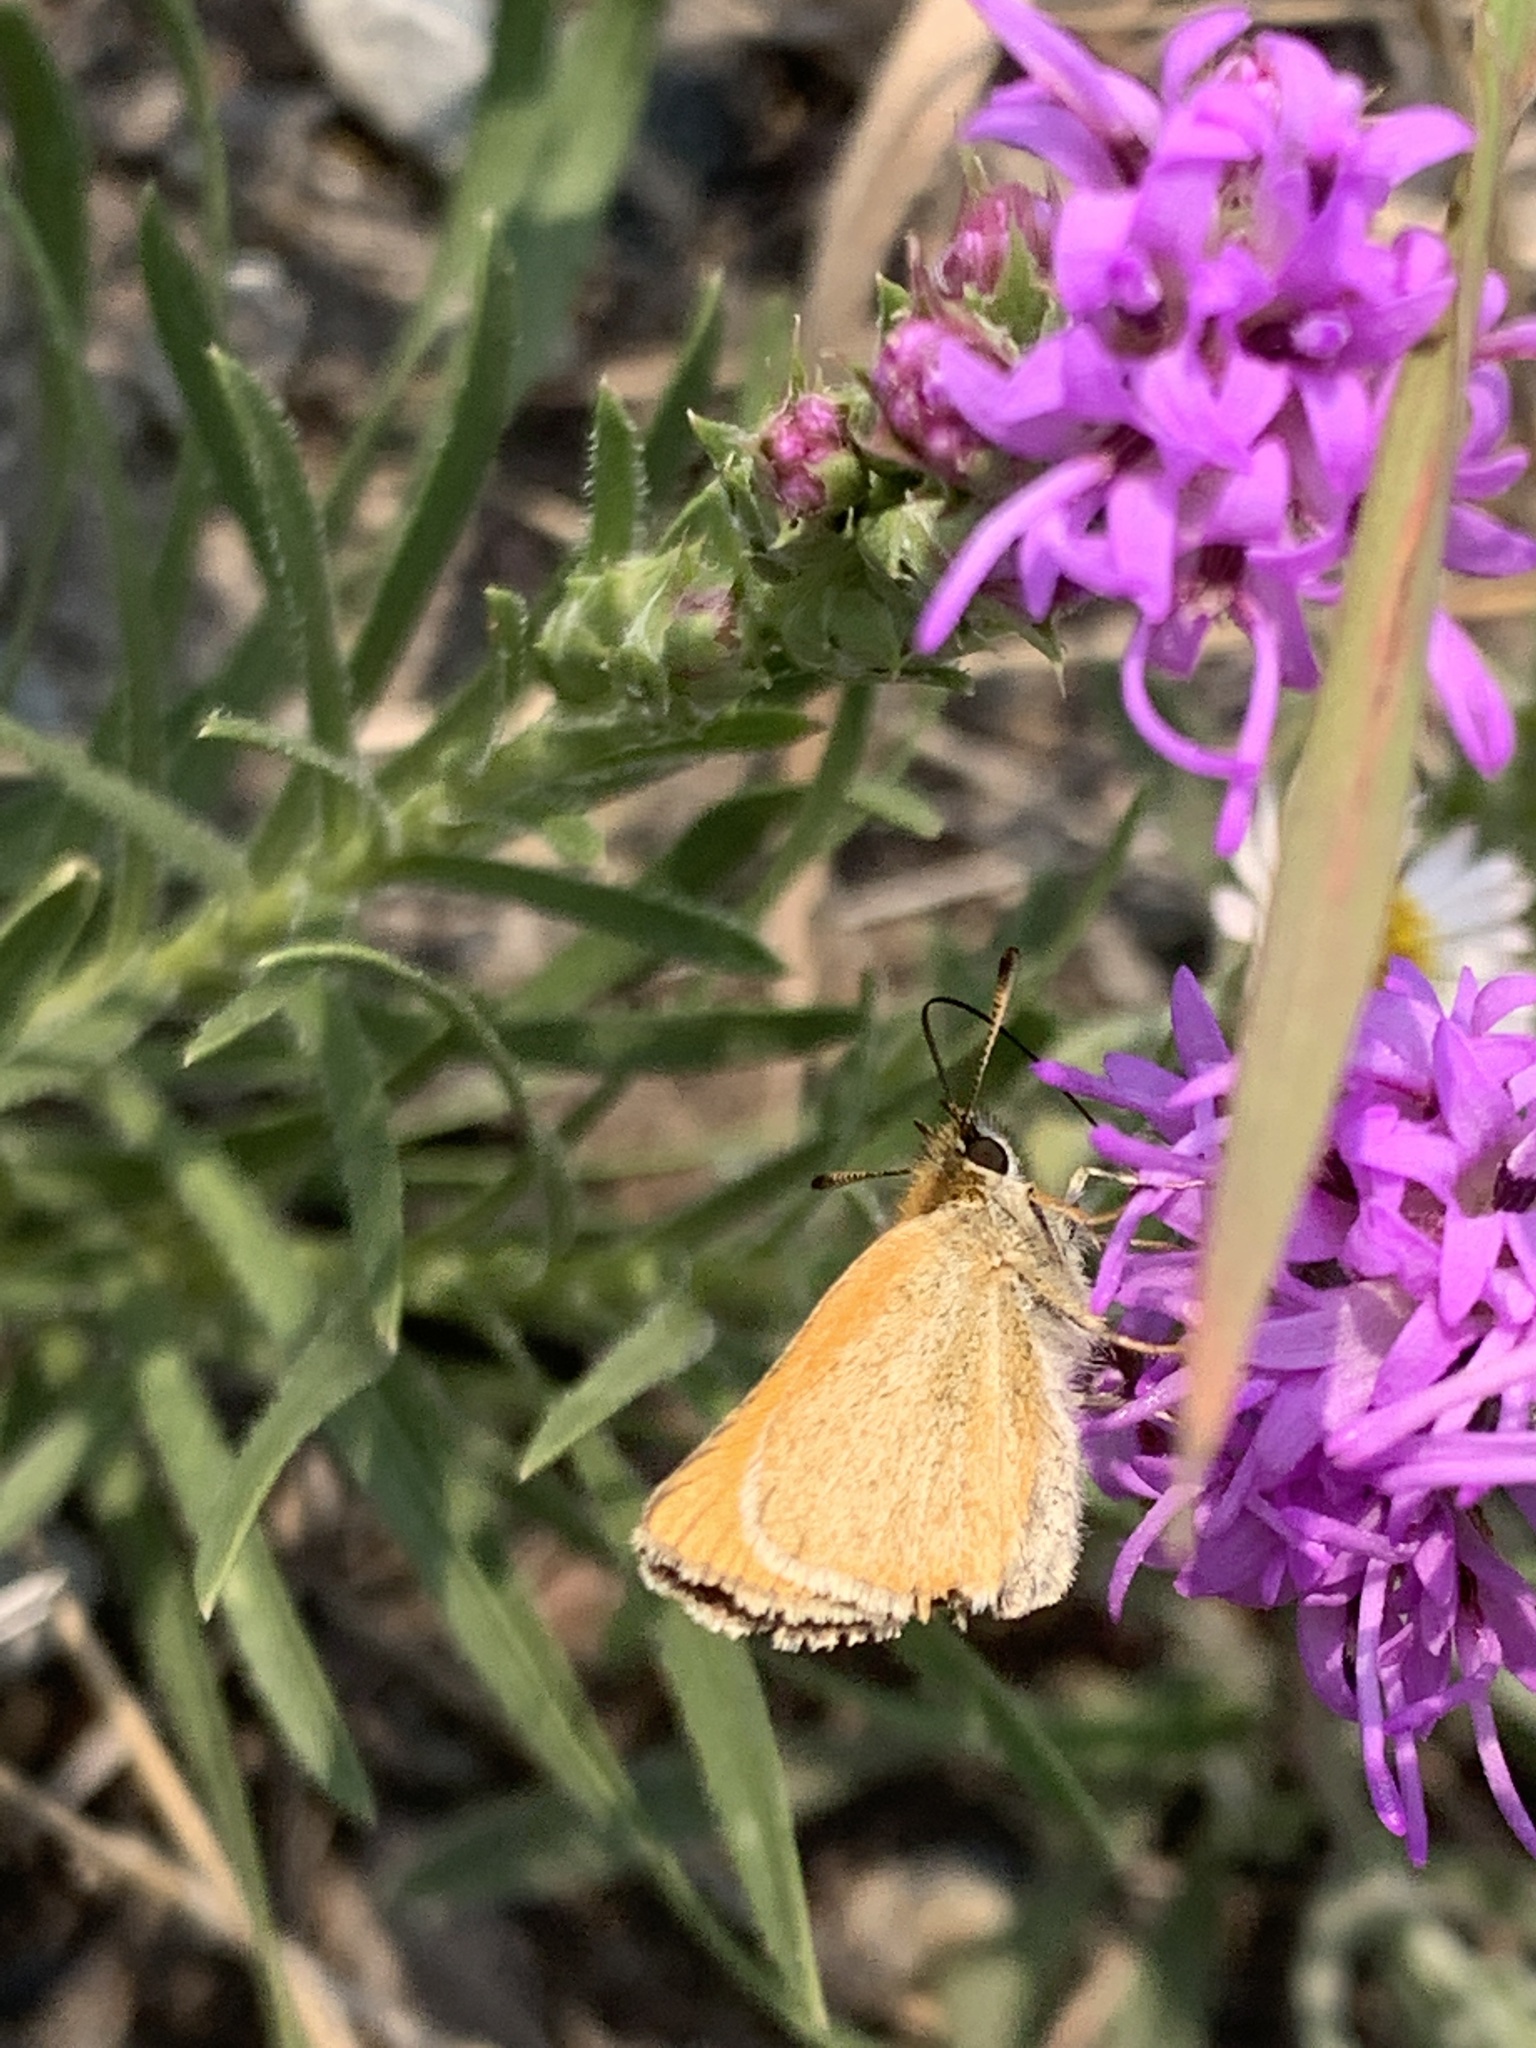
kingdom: Animalia
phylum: Arthropoda
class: Insecta
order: Lepidoptera
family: Hesperiidae
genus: Thymelicus
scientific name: Thymelicus lineola
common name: Essex skipper
